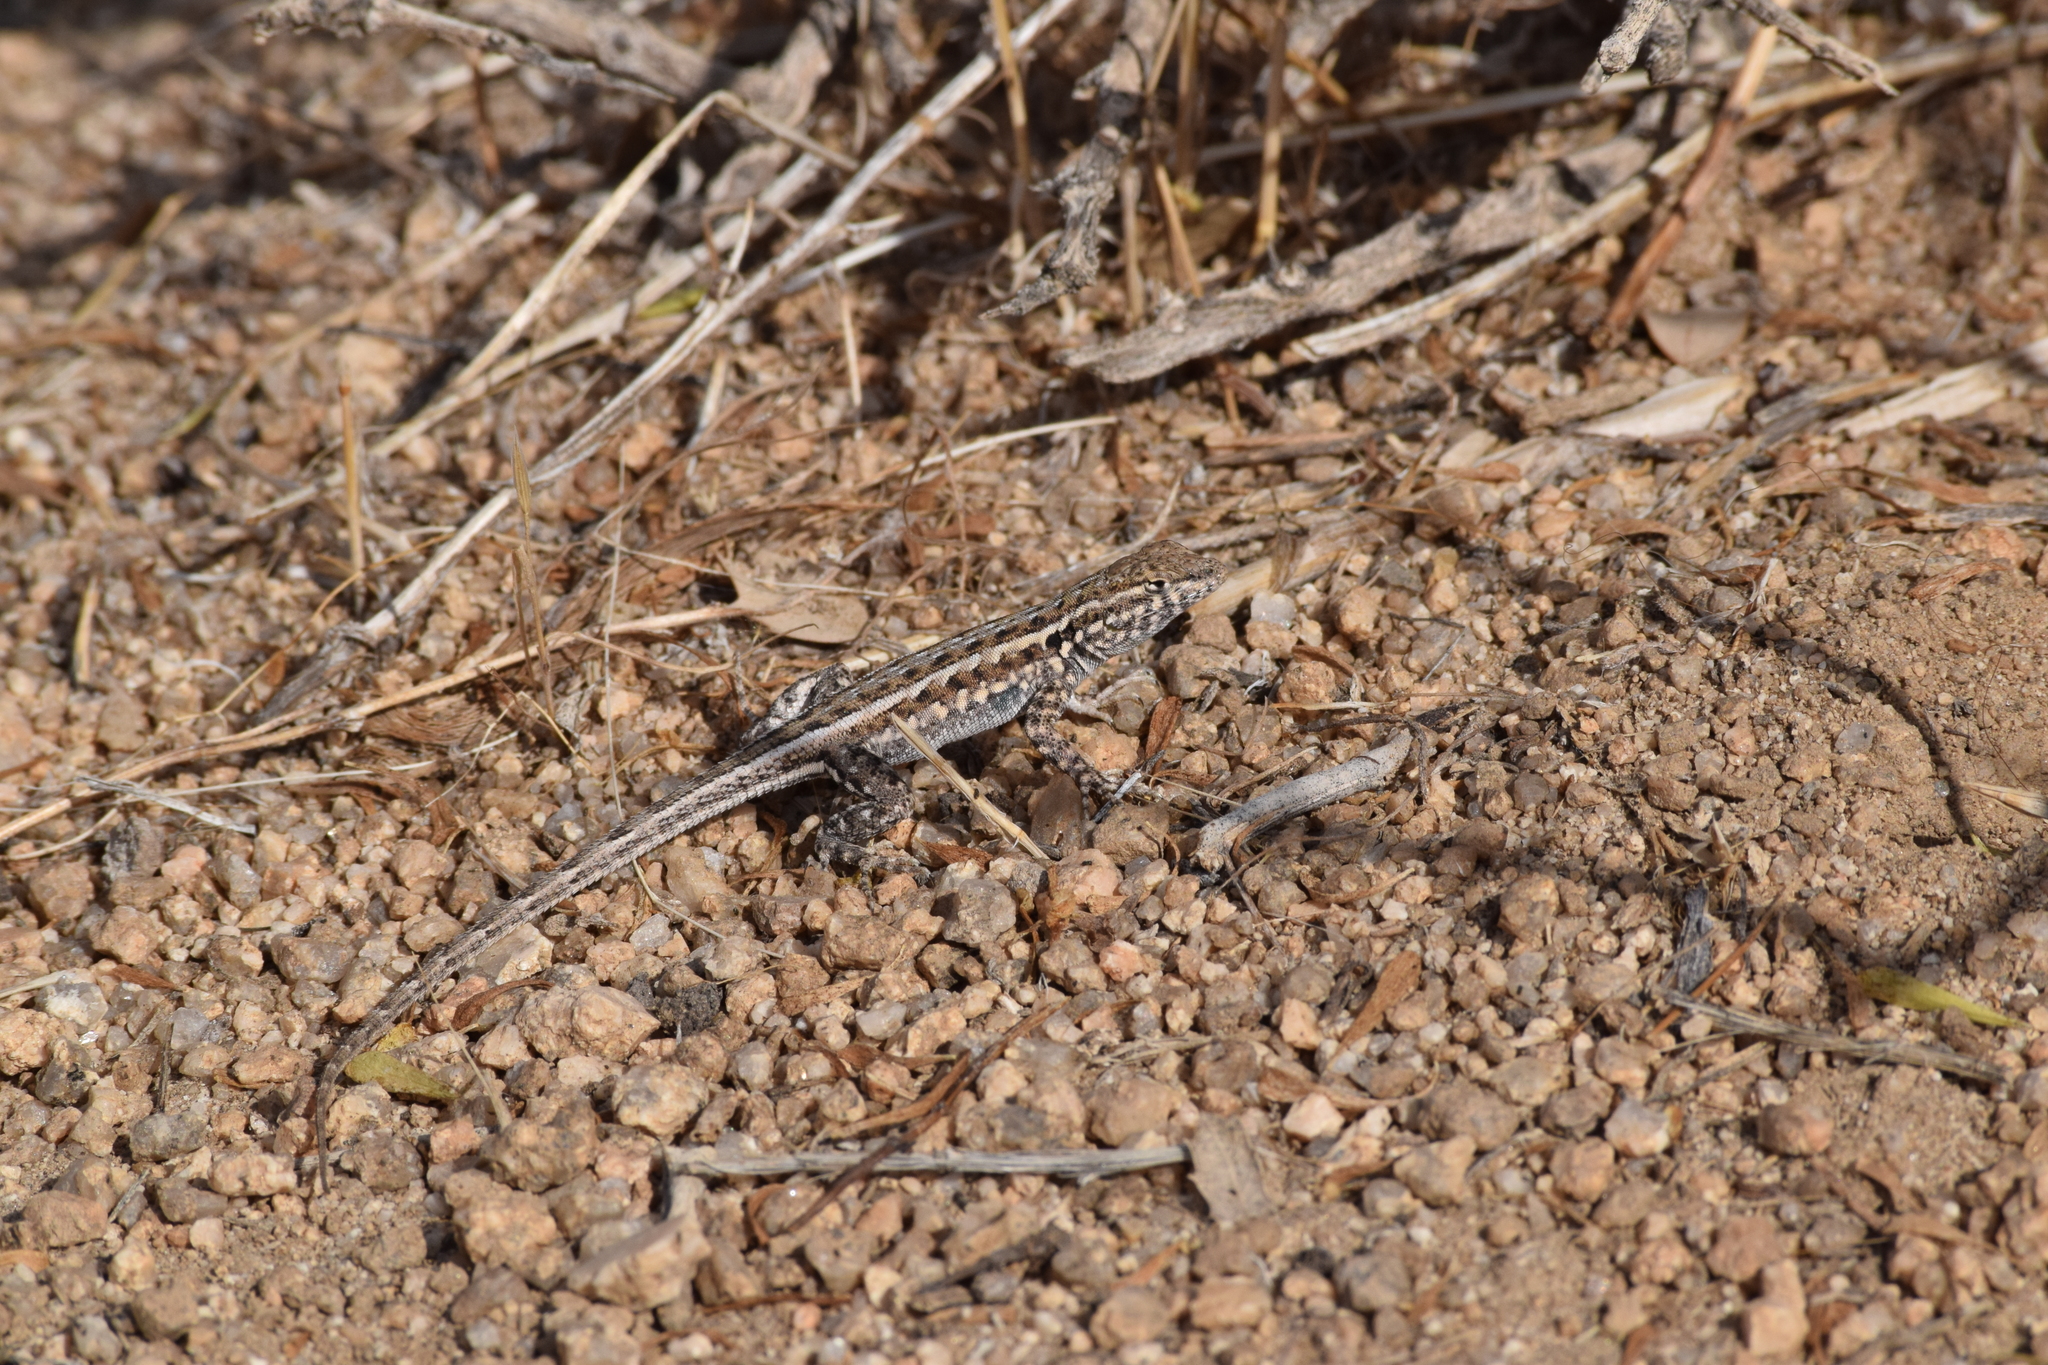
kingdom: Animalia
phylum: Chordata
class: Squamata
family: Phrynosomatidae
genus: Uta
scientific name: Uta stansburiana
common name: Side-blotched lizard
